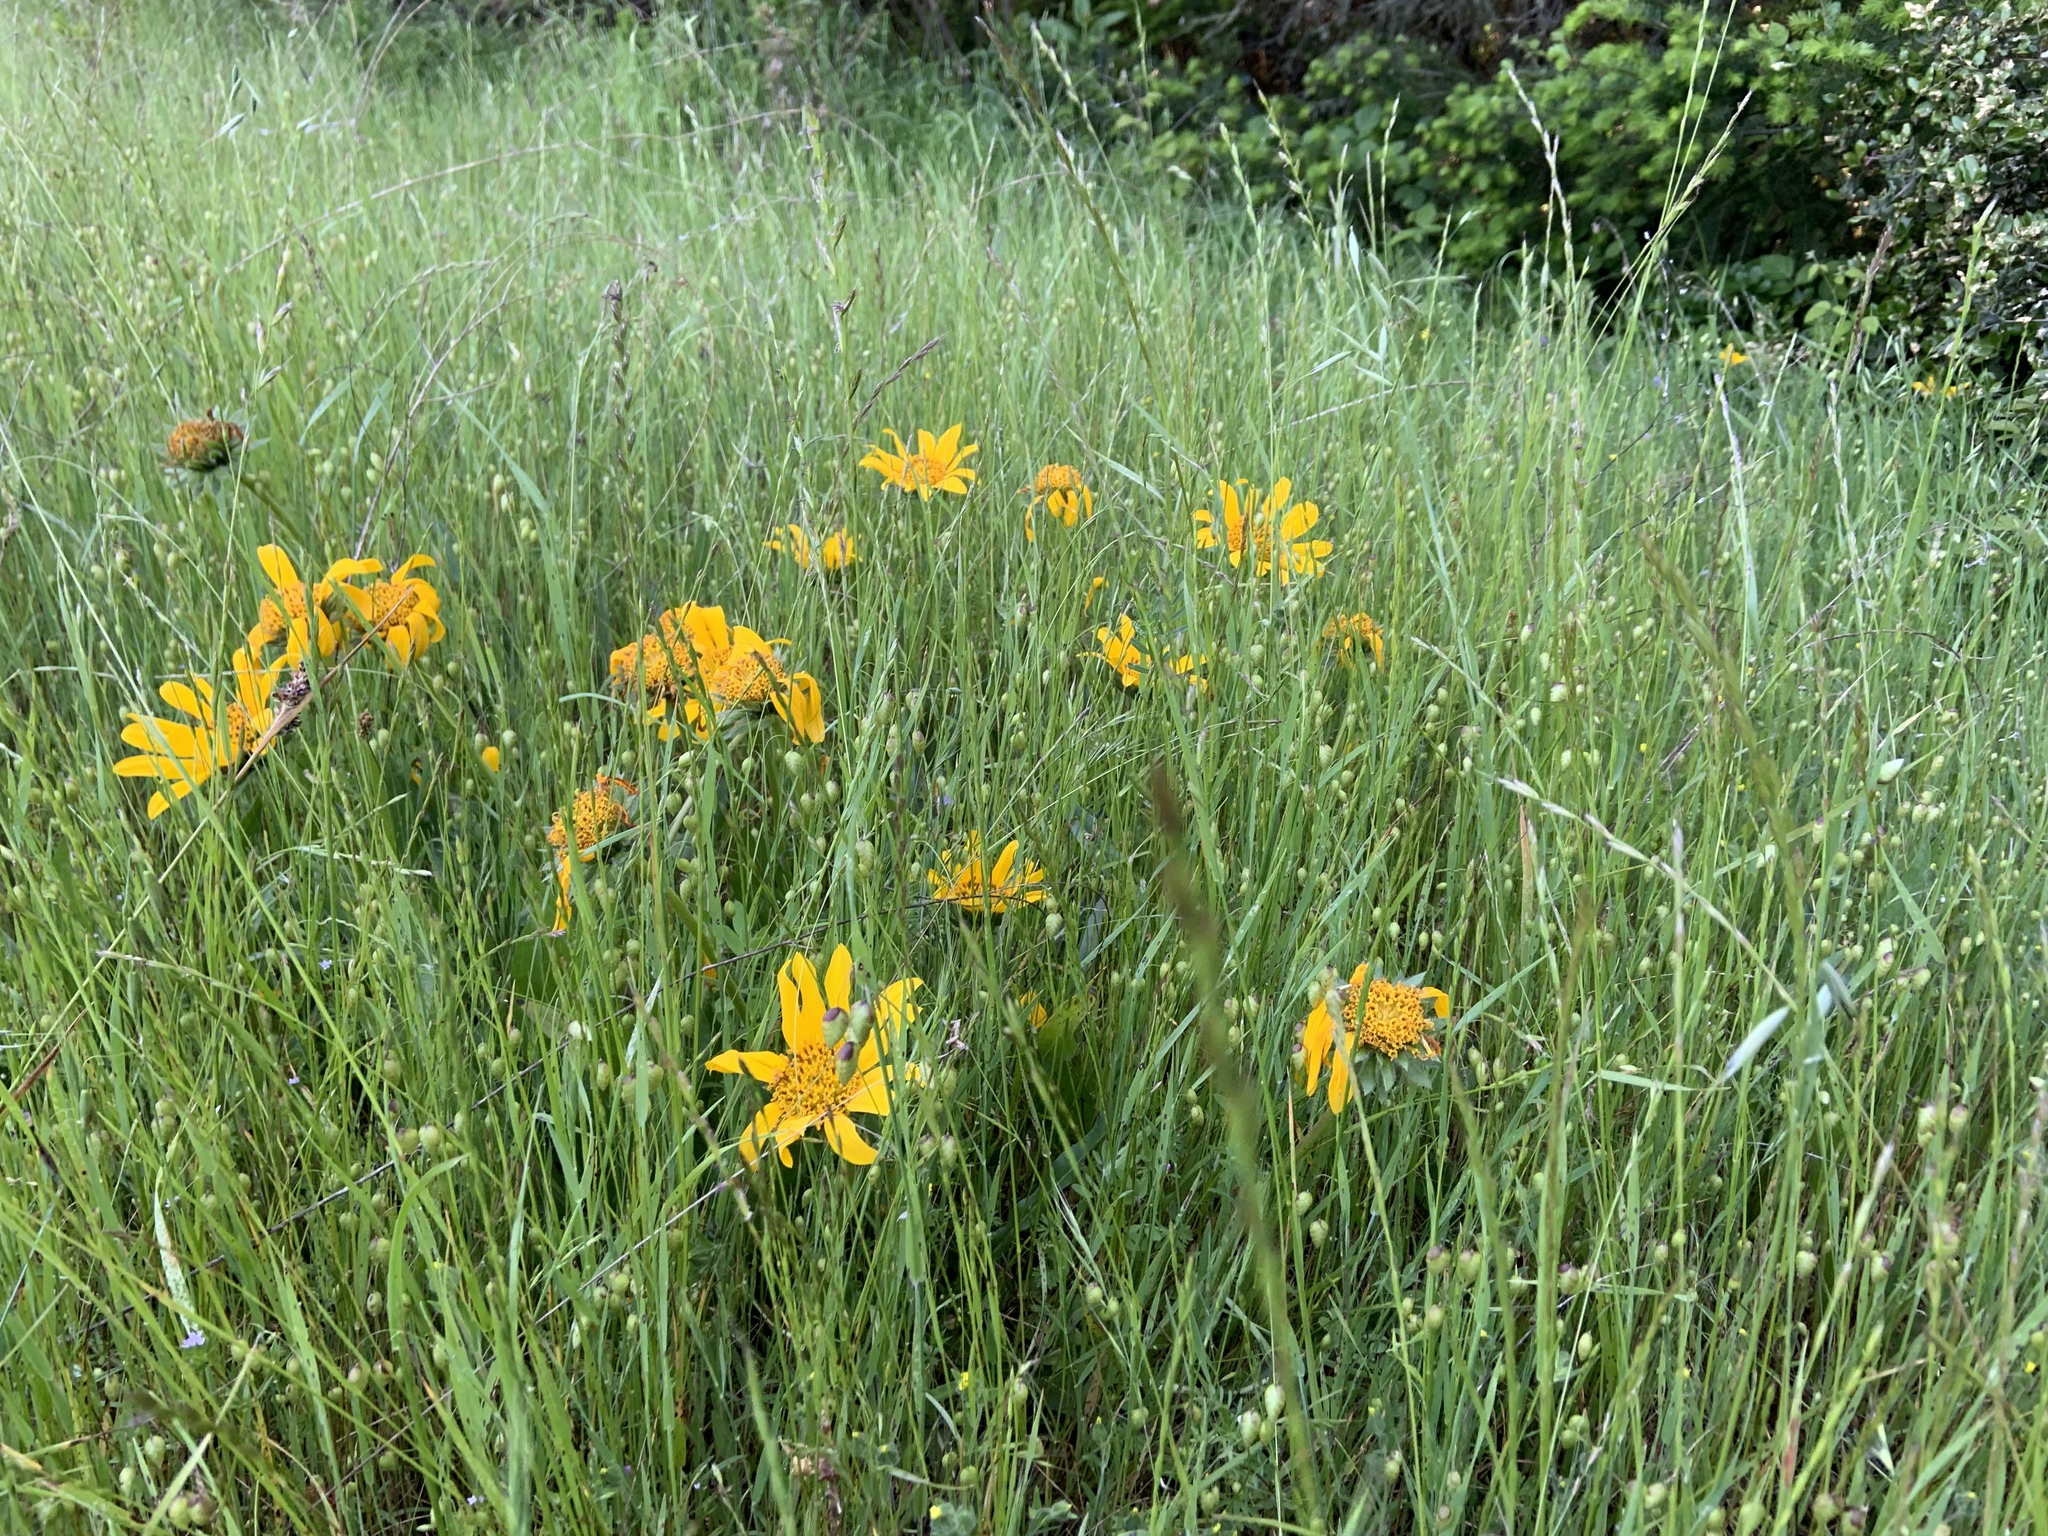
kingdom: Plantae
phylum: Tracheophyta
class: Magnoliopsida
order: Asterales
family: Asteraceae
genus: Wyethia
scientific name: Wyethia angustifolia
